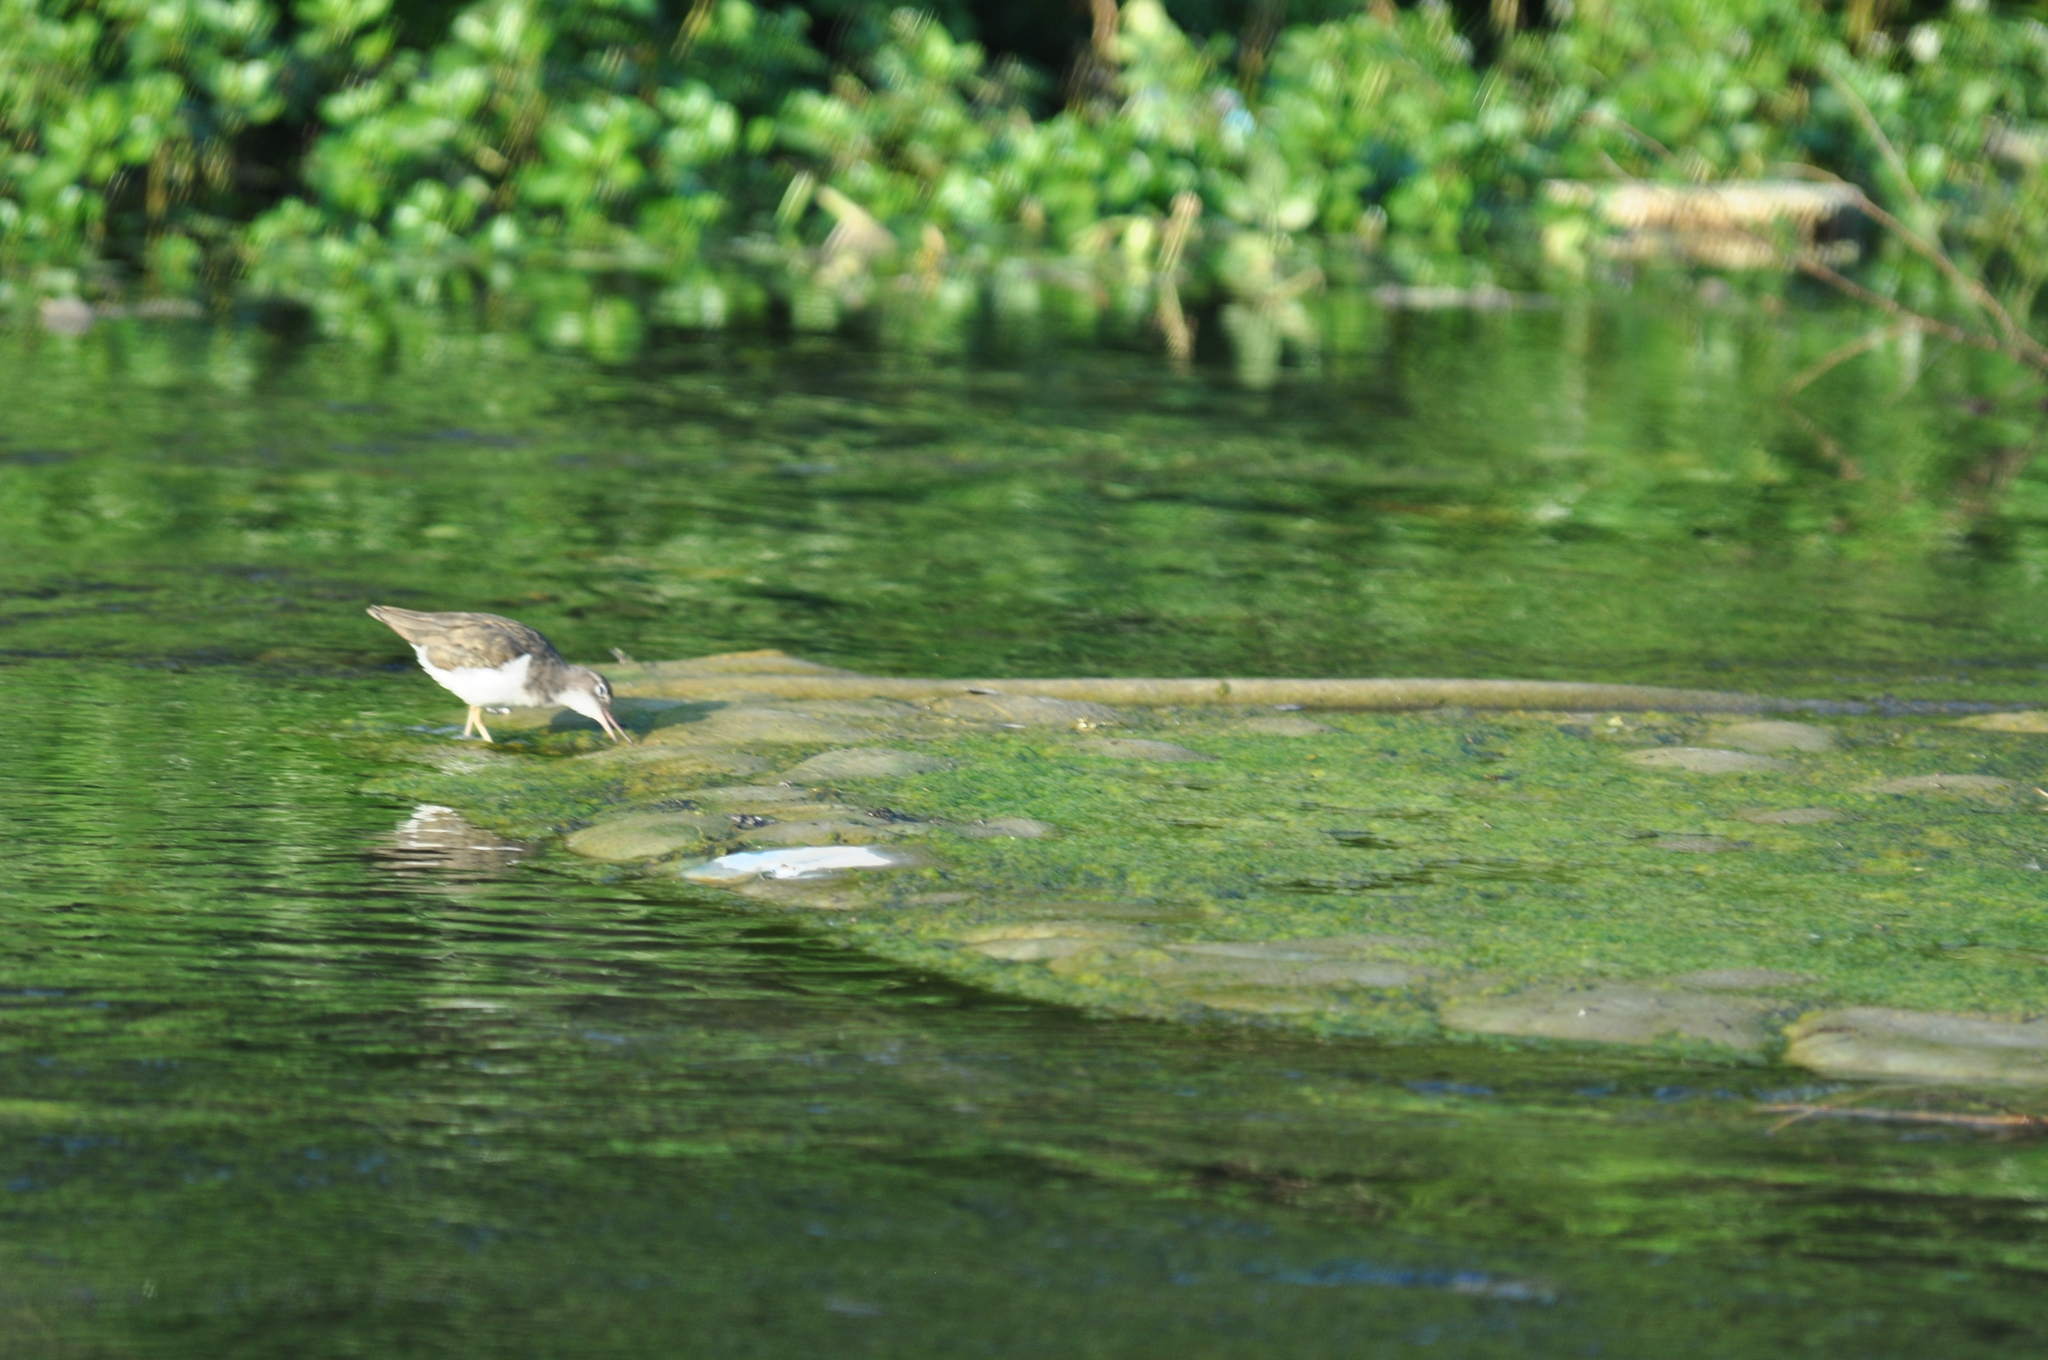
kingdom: Animalia
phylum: Chordata
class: Aves
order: Charadriiformes
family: Scolopacidae
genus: Actitis
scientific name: Actitis macularius
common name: Spotted sandpiper
